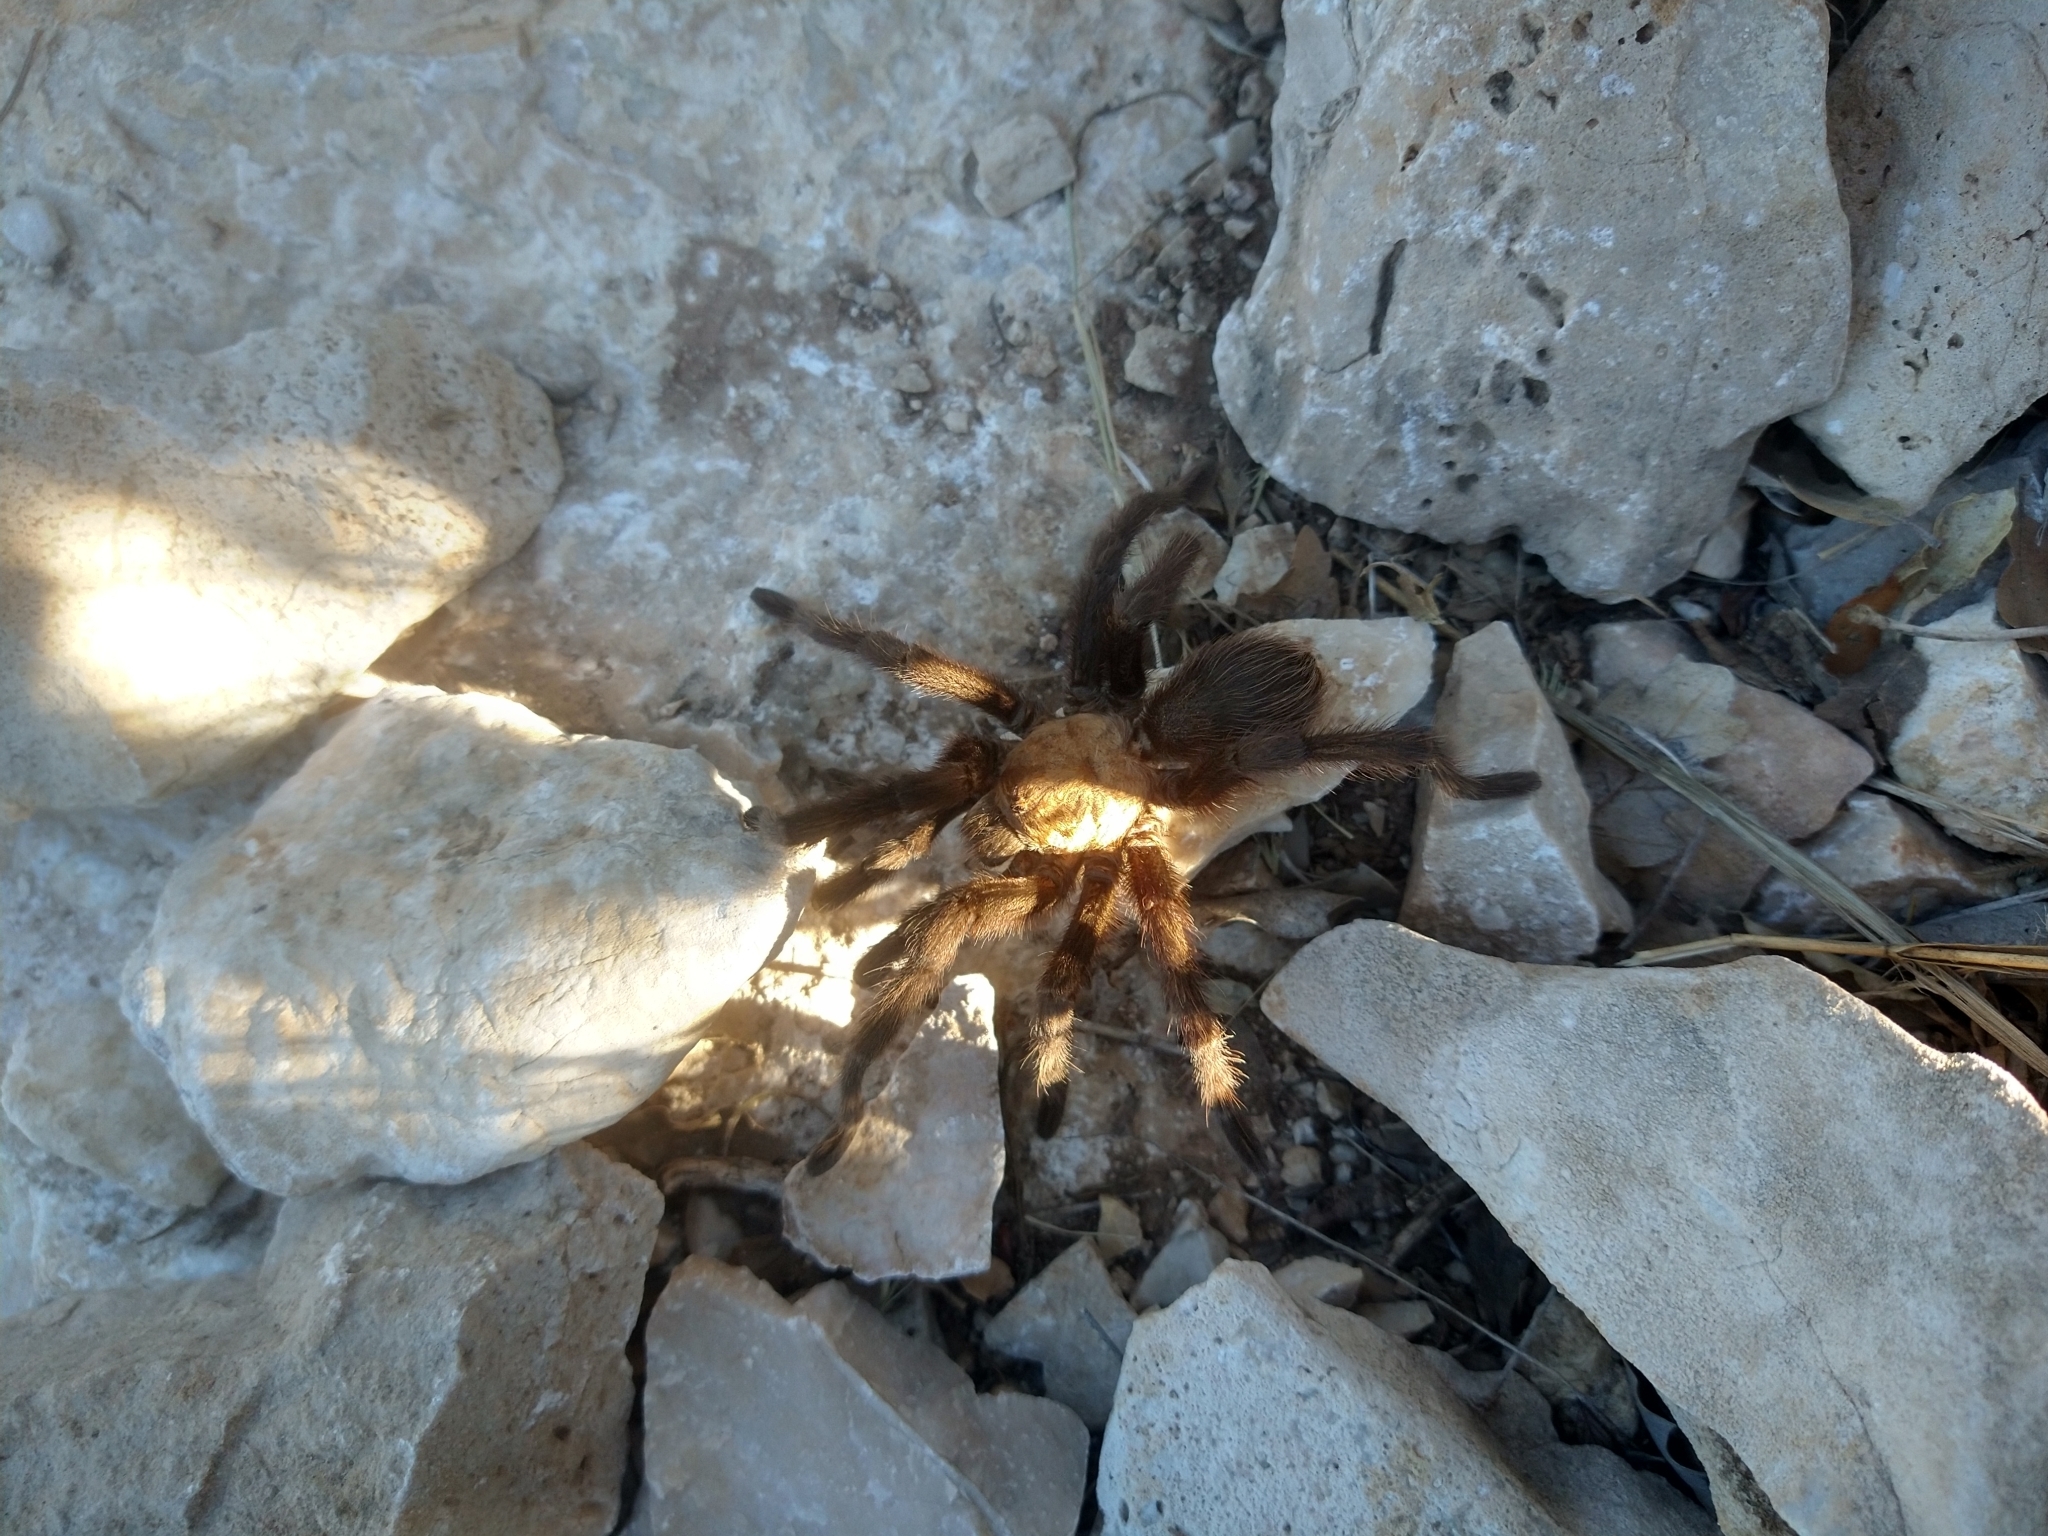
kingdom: Animalia
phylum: Arthropoda
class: Arachnida
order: Araneae
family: Theraphosidae
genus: Aphonopelma
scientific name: Aphonopelma hentzi
